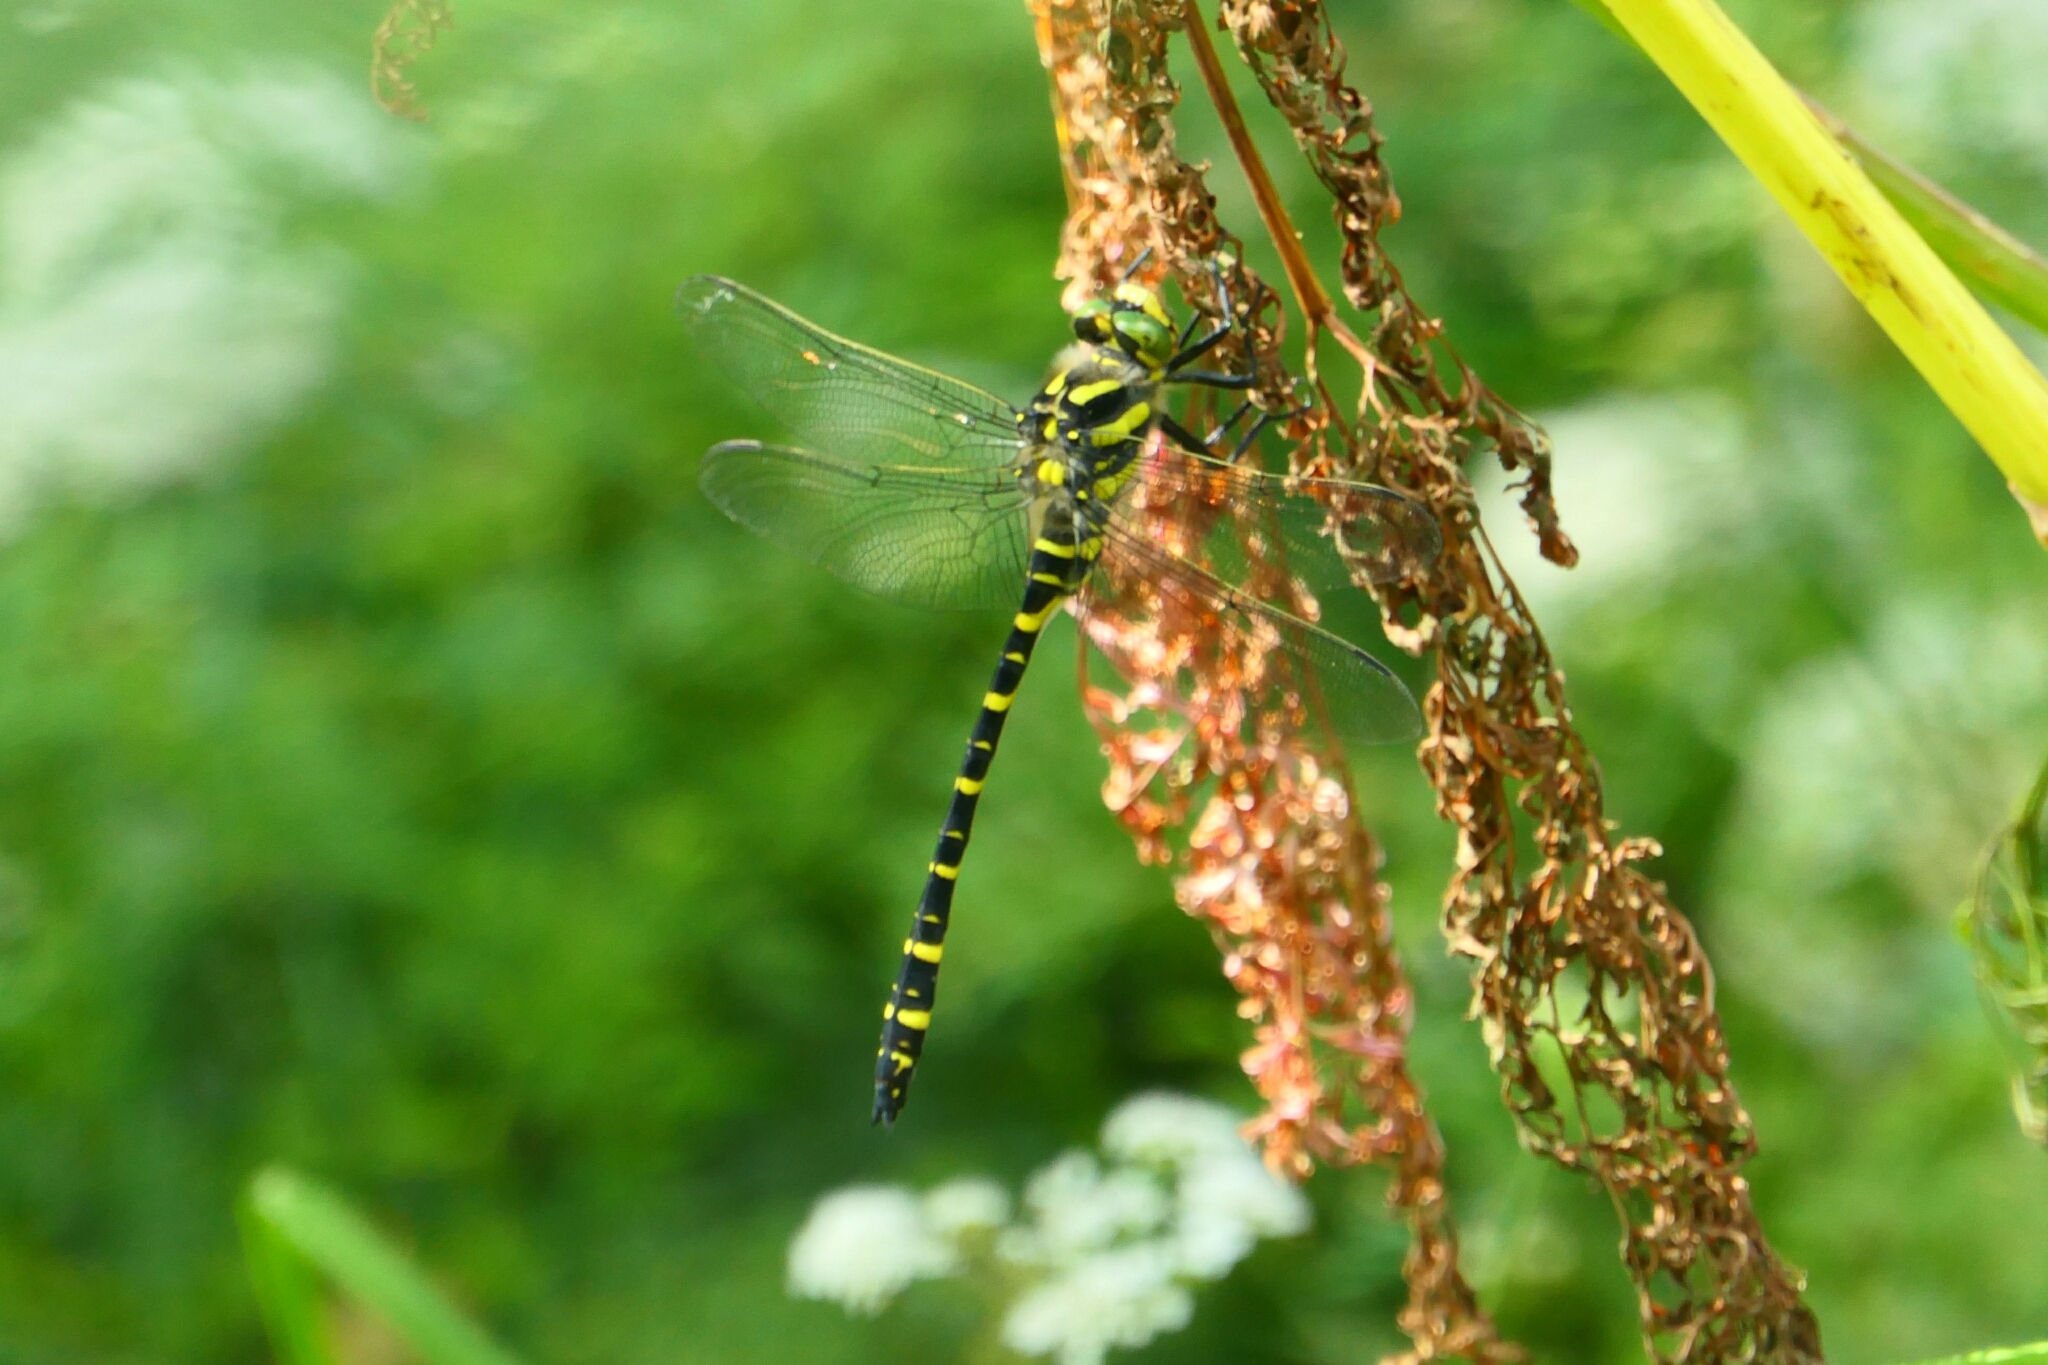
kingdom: Animalia
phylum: Arthropoda
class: Insecta
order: Odonata
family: Cordulegastridae
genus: Cordulegaster
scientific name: Cordulegaster boltonii
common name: Golden-ringed dragonfly
